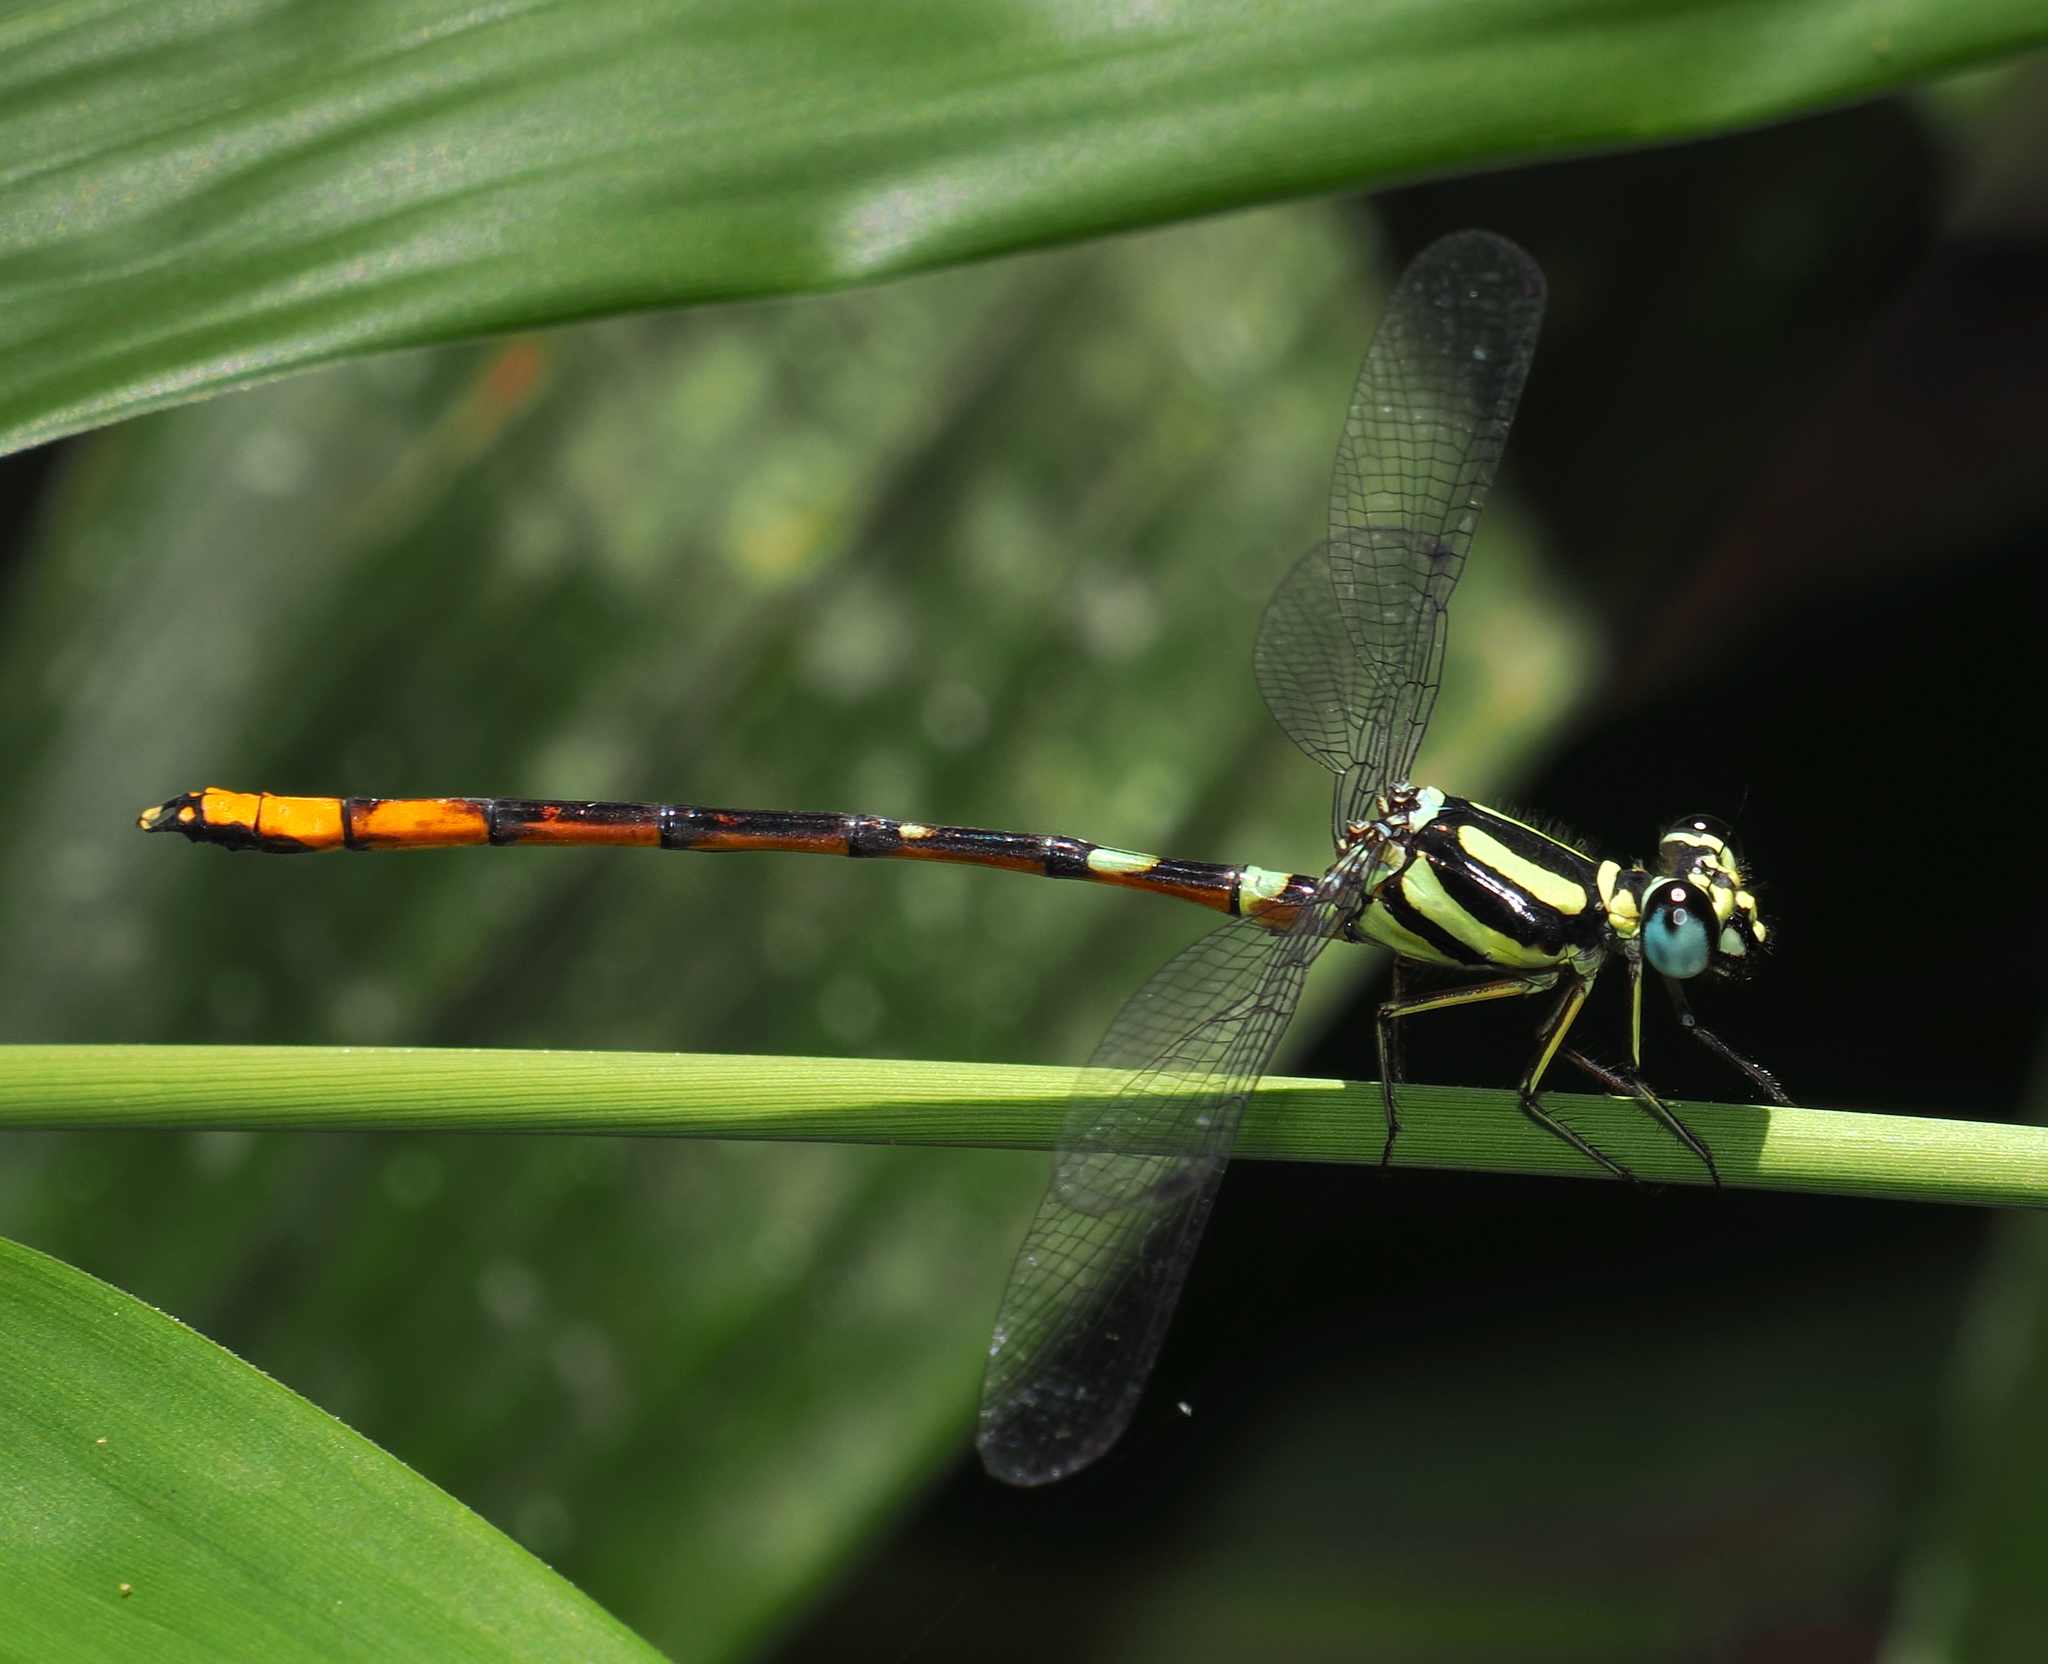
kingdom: Animalia
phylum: Arthropoda
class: Insecta
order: Odonata
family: Philosinidae
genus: Rhinagrion
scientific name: Rhinagrion viridatum
